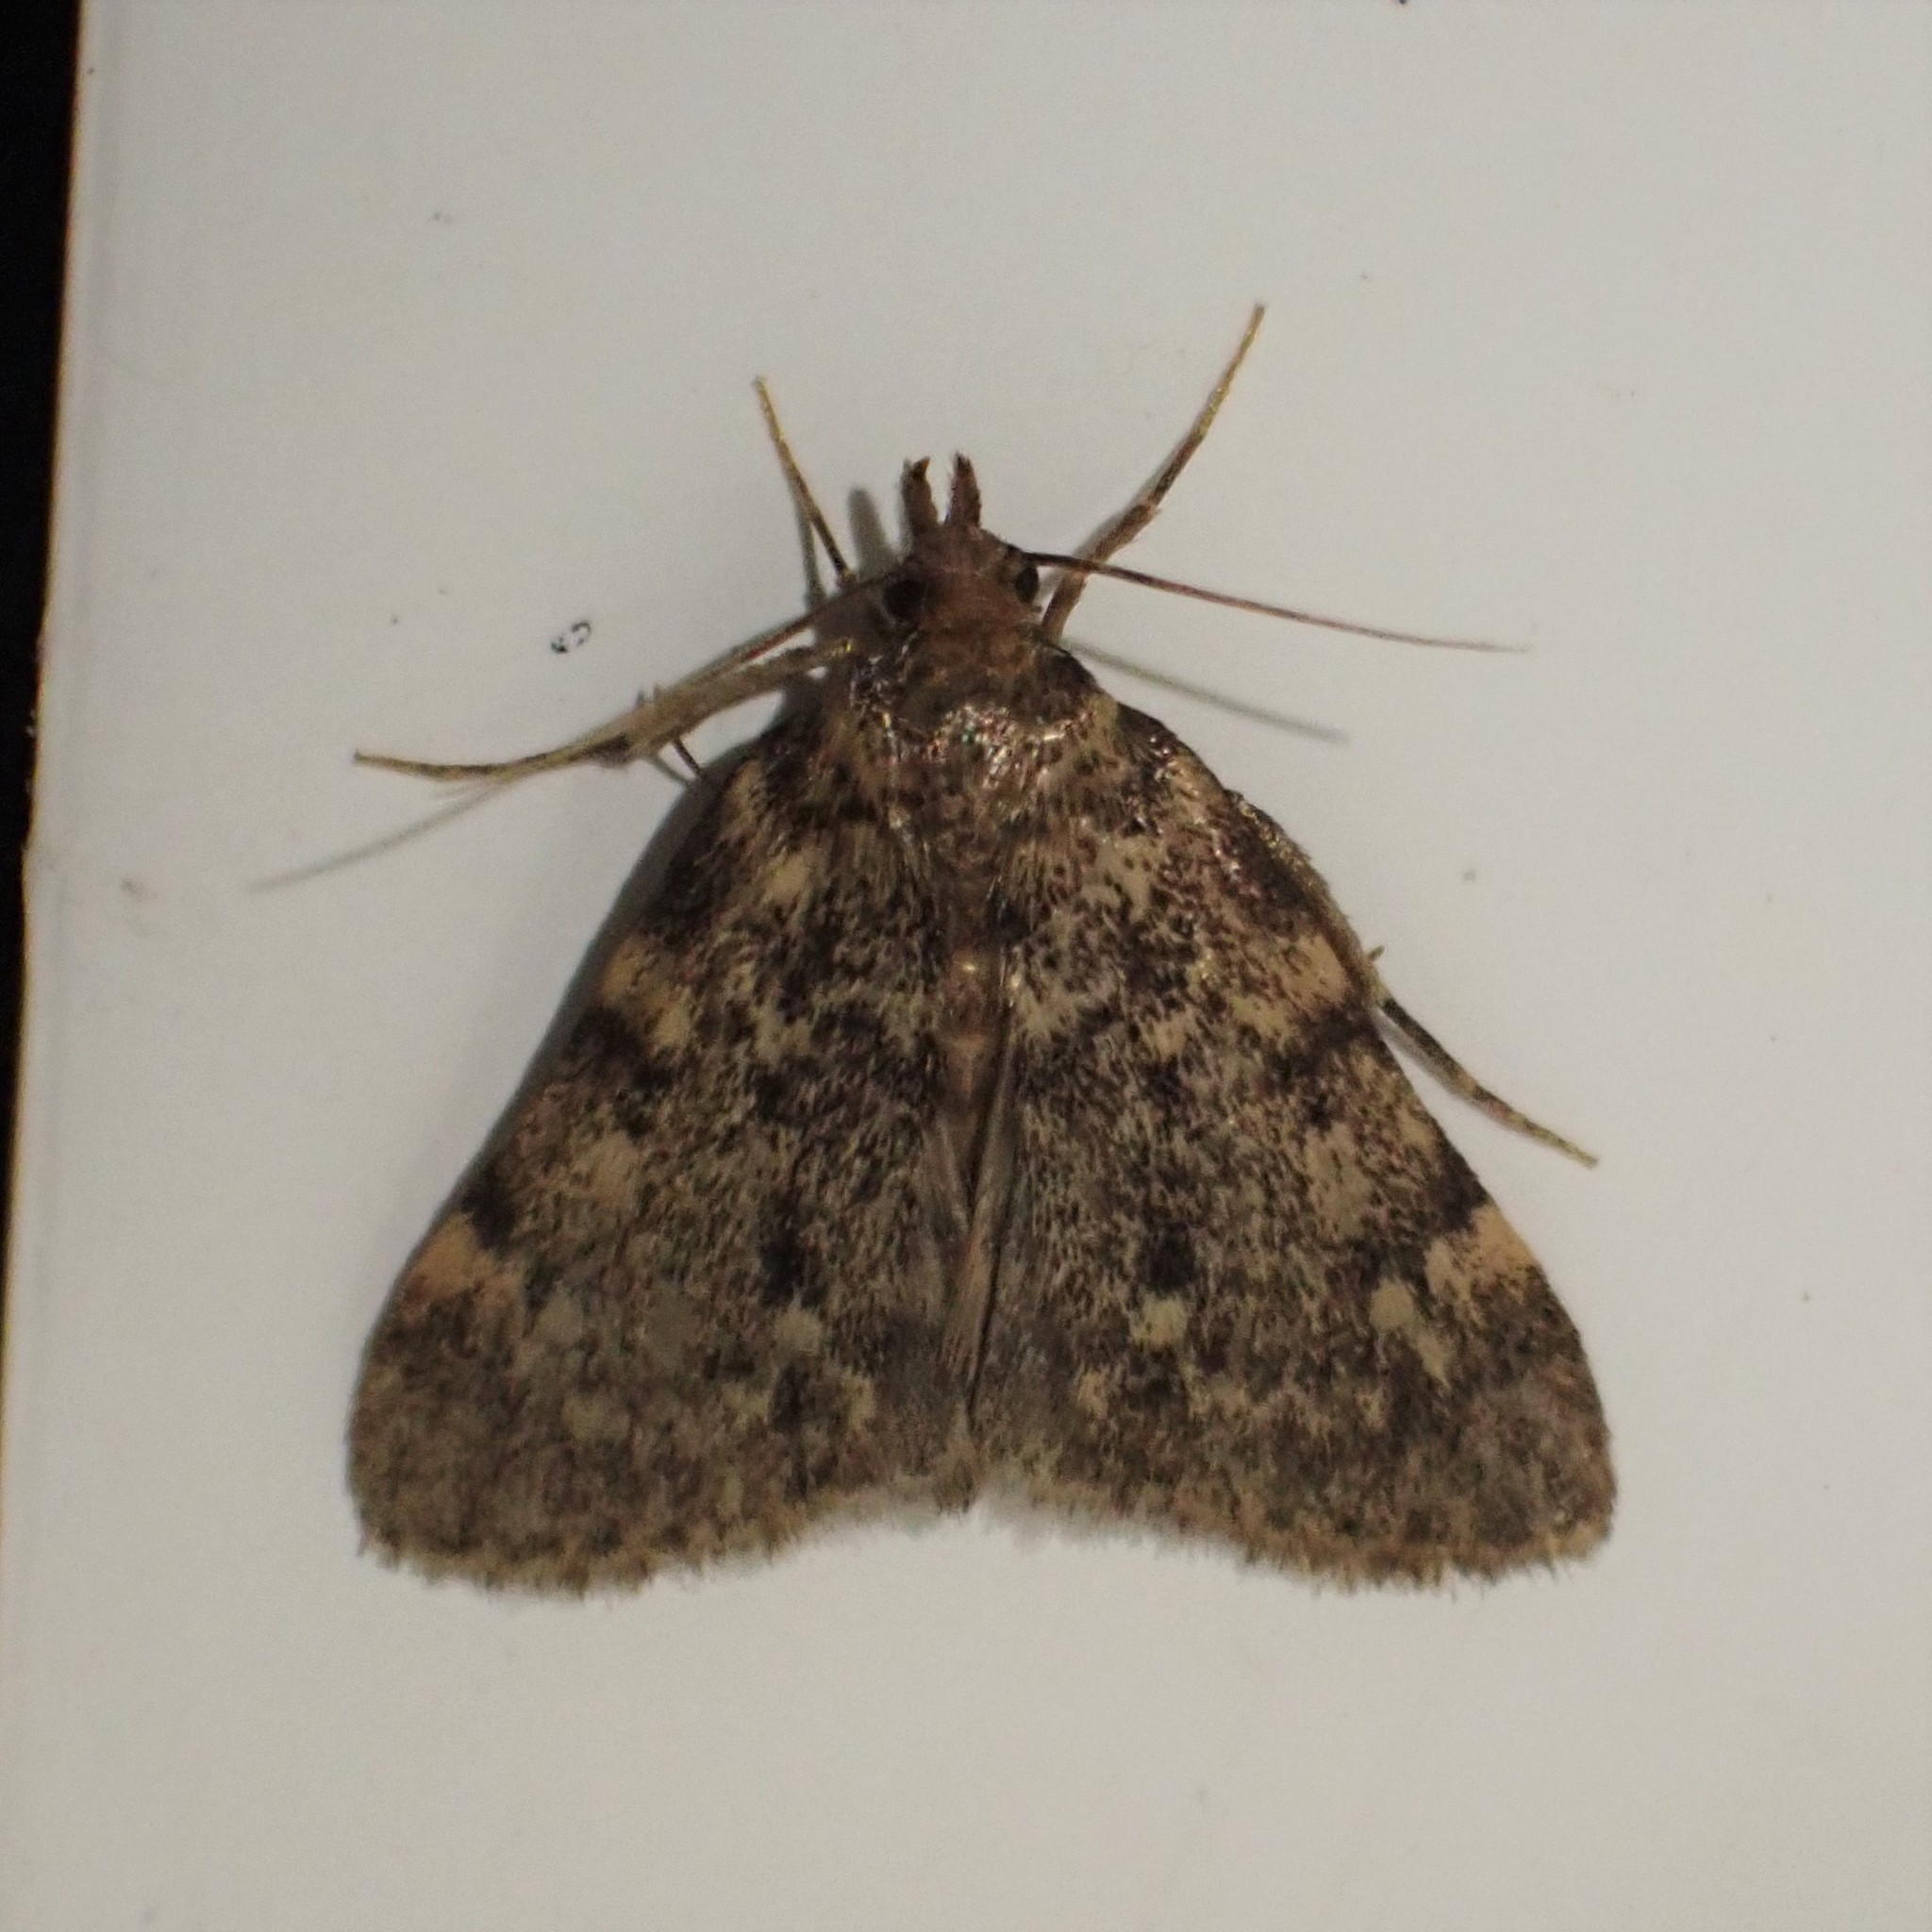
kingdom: Animalia
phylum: Arthropoda
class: Insecta
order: Lepidoptera
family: Pyralidae
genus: Aglossa
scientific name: Aglossa pinguinalis
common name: Large tabby
